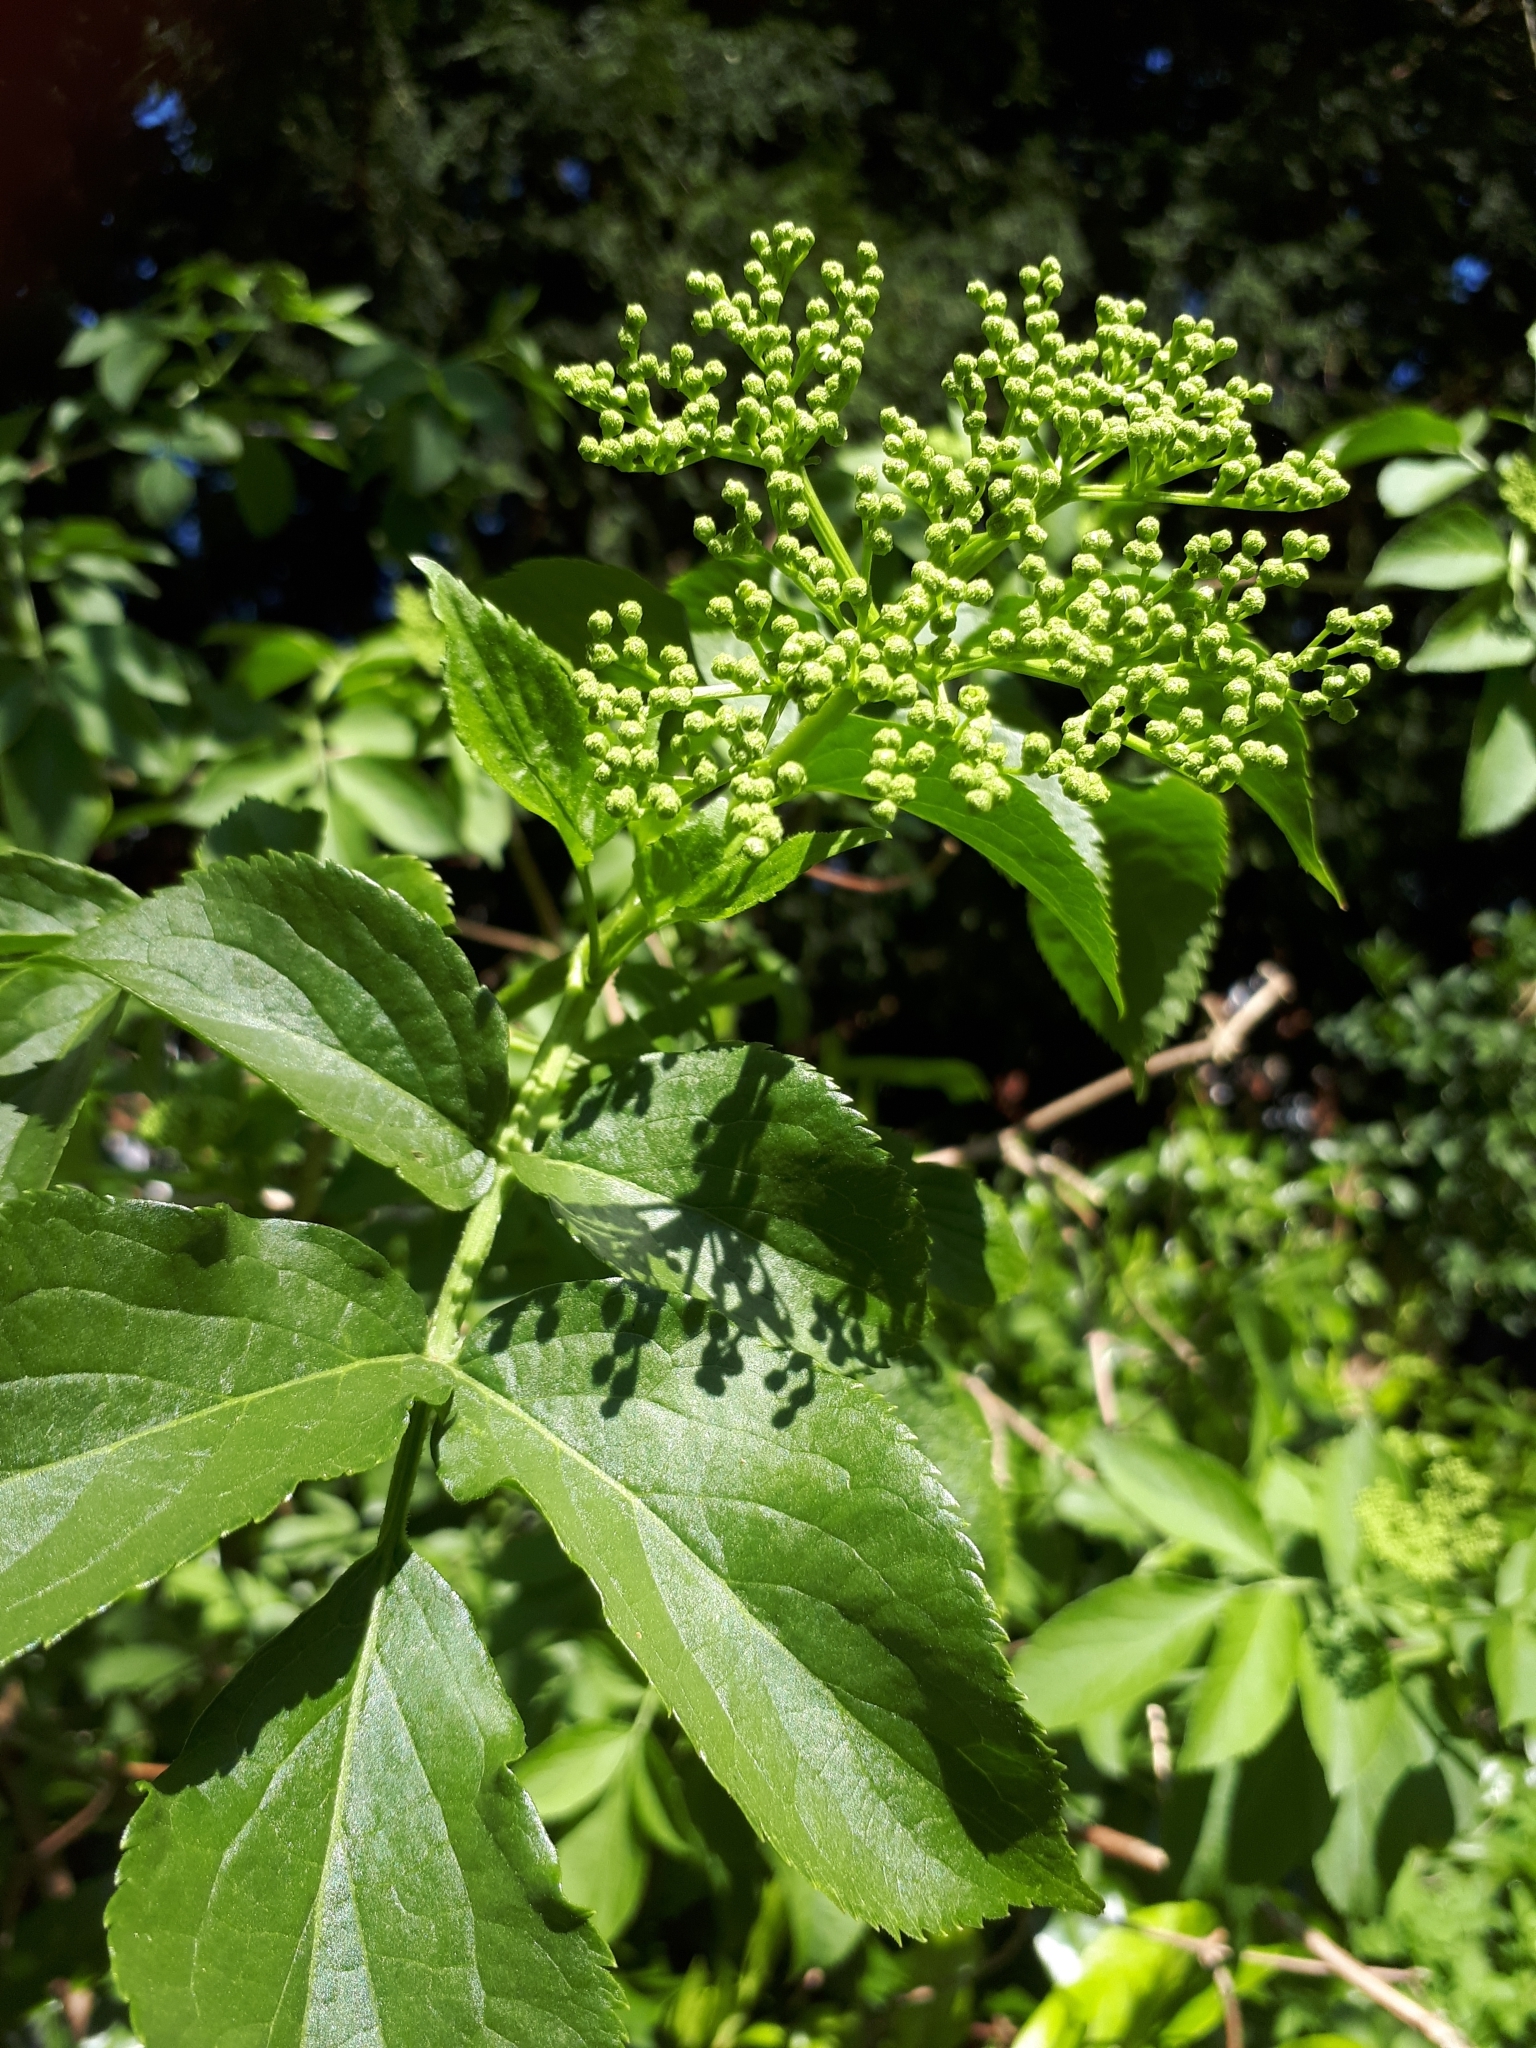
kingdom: Plantae
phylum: Tracheophyta
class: Magnoliopsida
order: Dipsacales
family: Viburnaceae
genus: Sambucus
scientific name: Sambucus nigra
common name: Elder
